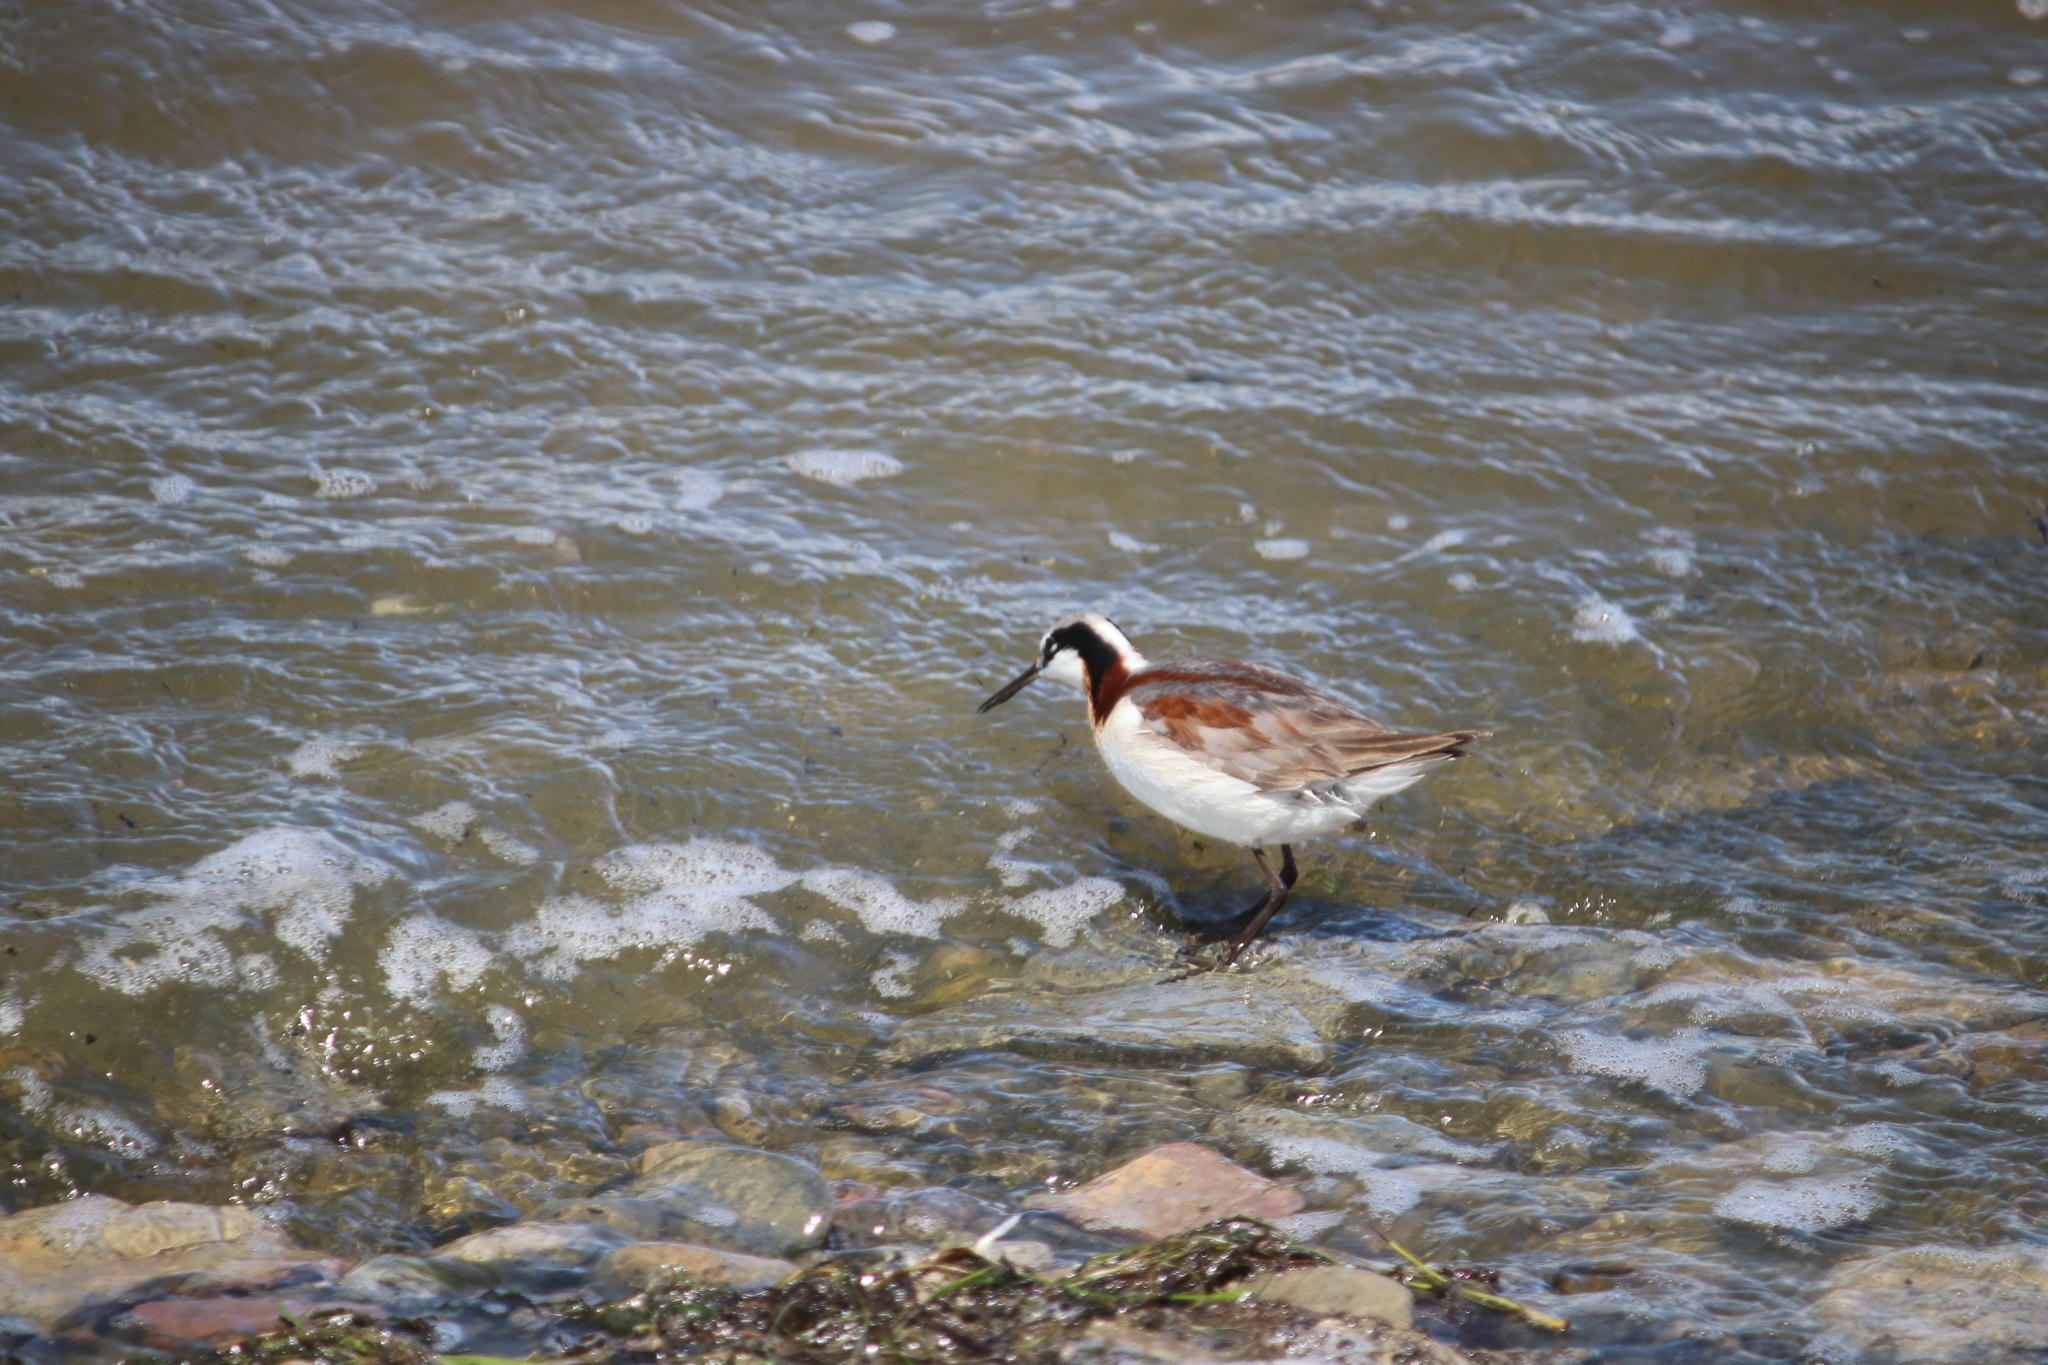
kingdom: Animalia
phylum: Chordata
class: Aves
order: Charadriiformes
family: Scolopacidae
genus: Phalaropus
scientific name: Phalaropus tricolor
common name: Wilson's phalarope
